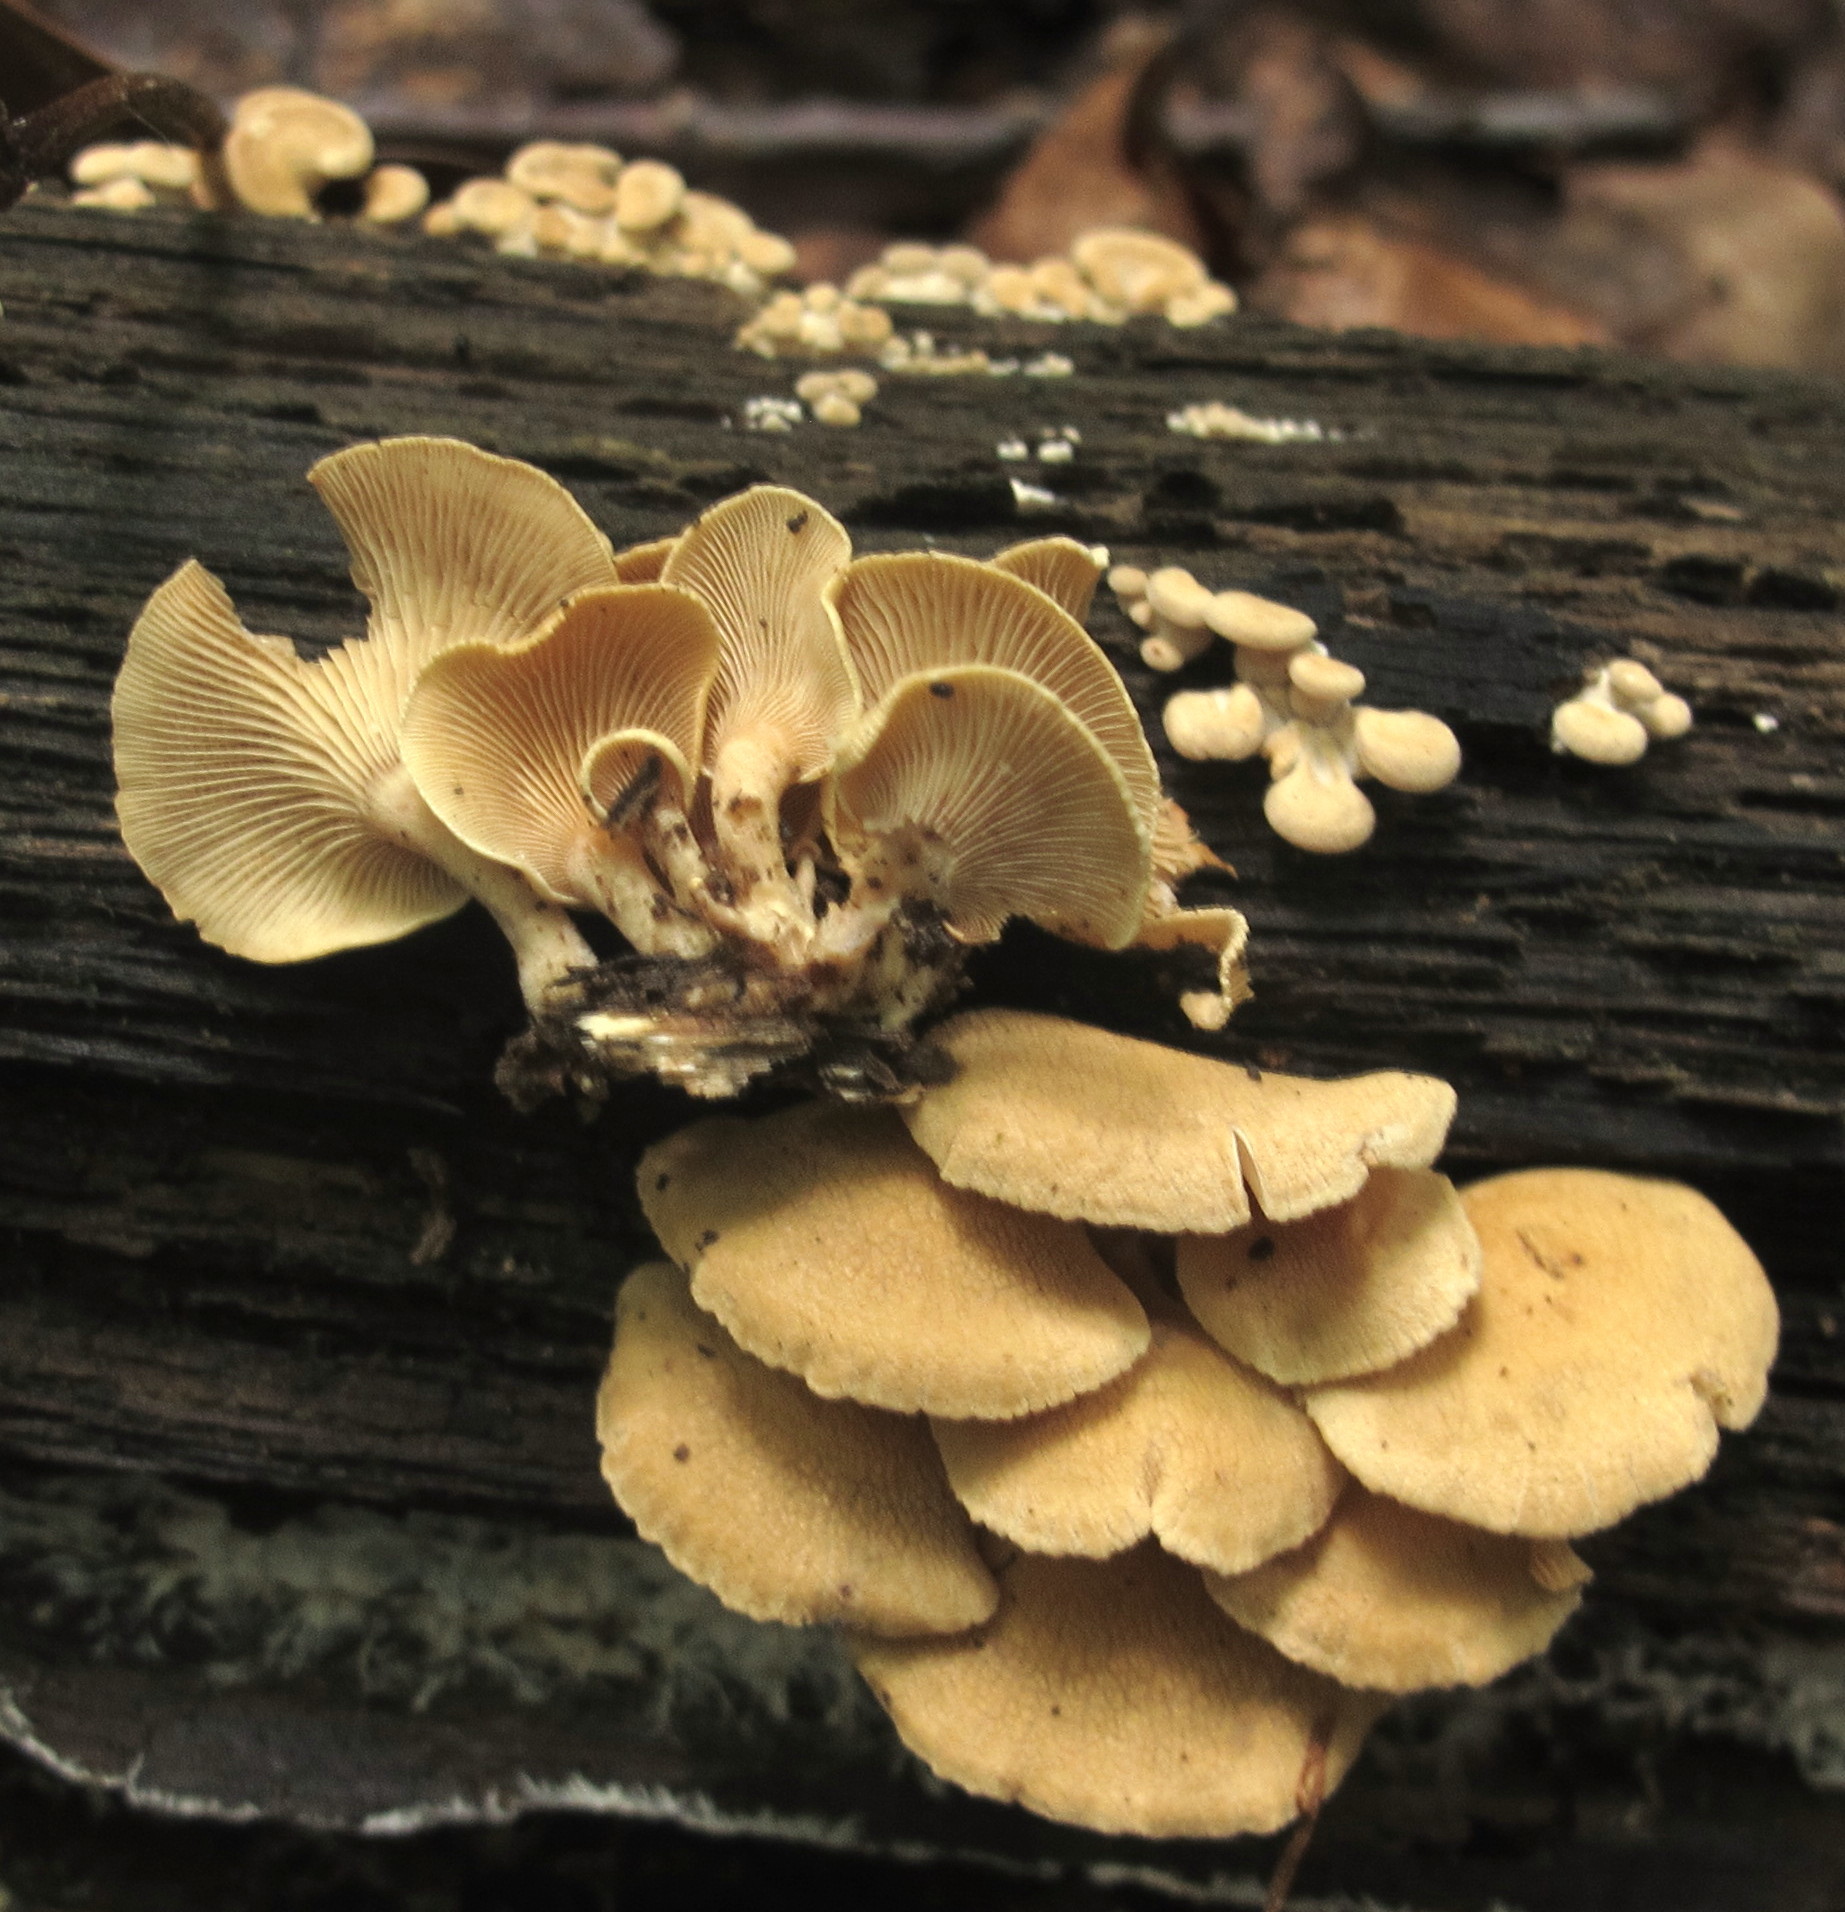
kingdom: Fungi
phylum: Basidiomycota
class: Agaricomycetes
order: Agaricales
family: Mycenaceae
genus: Panellus
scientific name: Panellus stipticus
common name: Bitter oysterling
